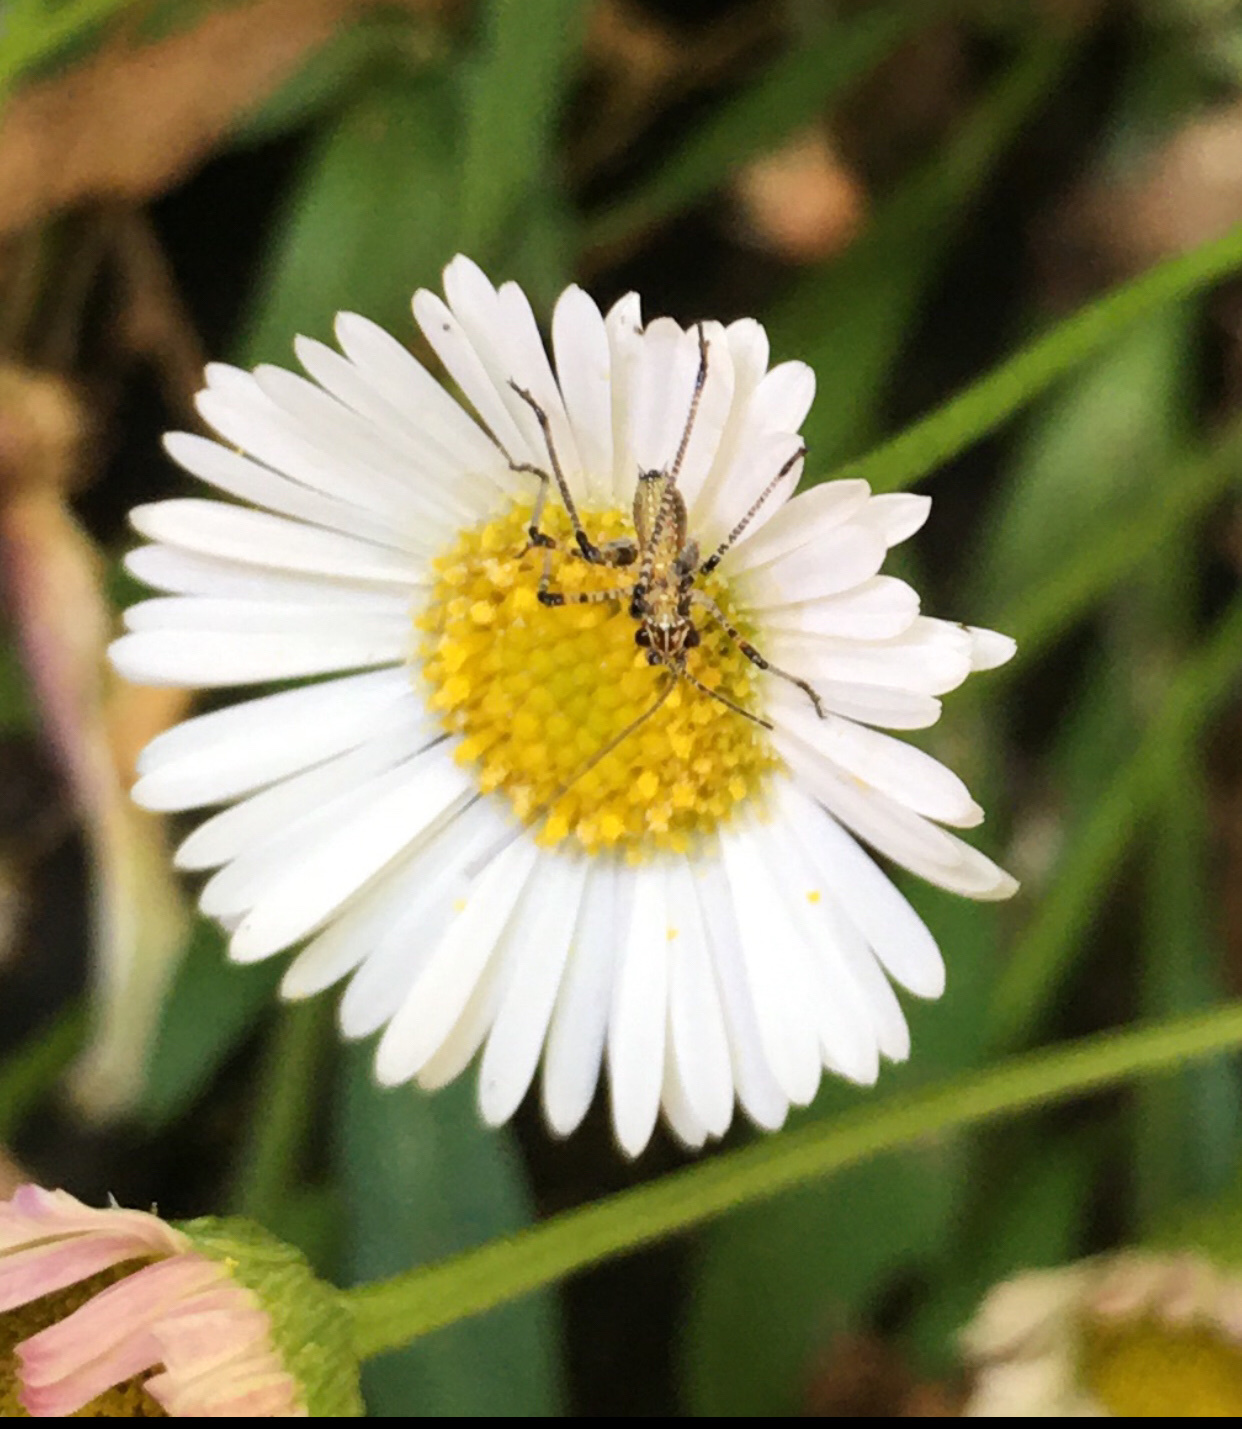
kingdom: Animalia
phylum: Arthropoda
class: Insecta
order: Orthoptera
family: Tettigoniidae
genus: Phaneroptera
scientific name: Phaneroptera nana
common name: Southern sickle bush-cricket
